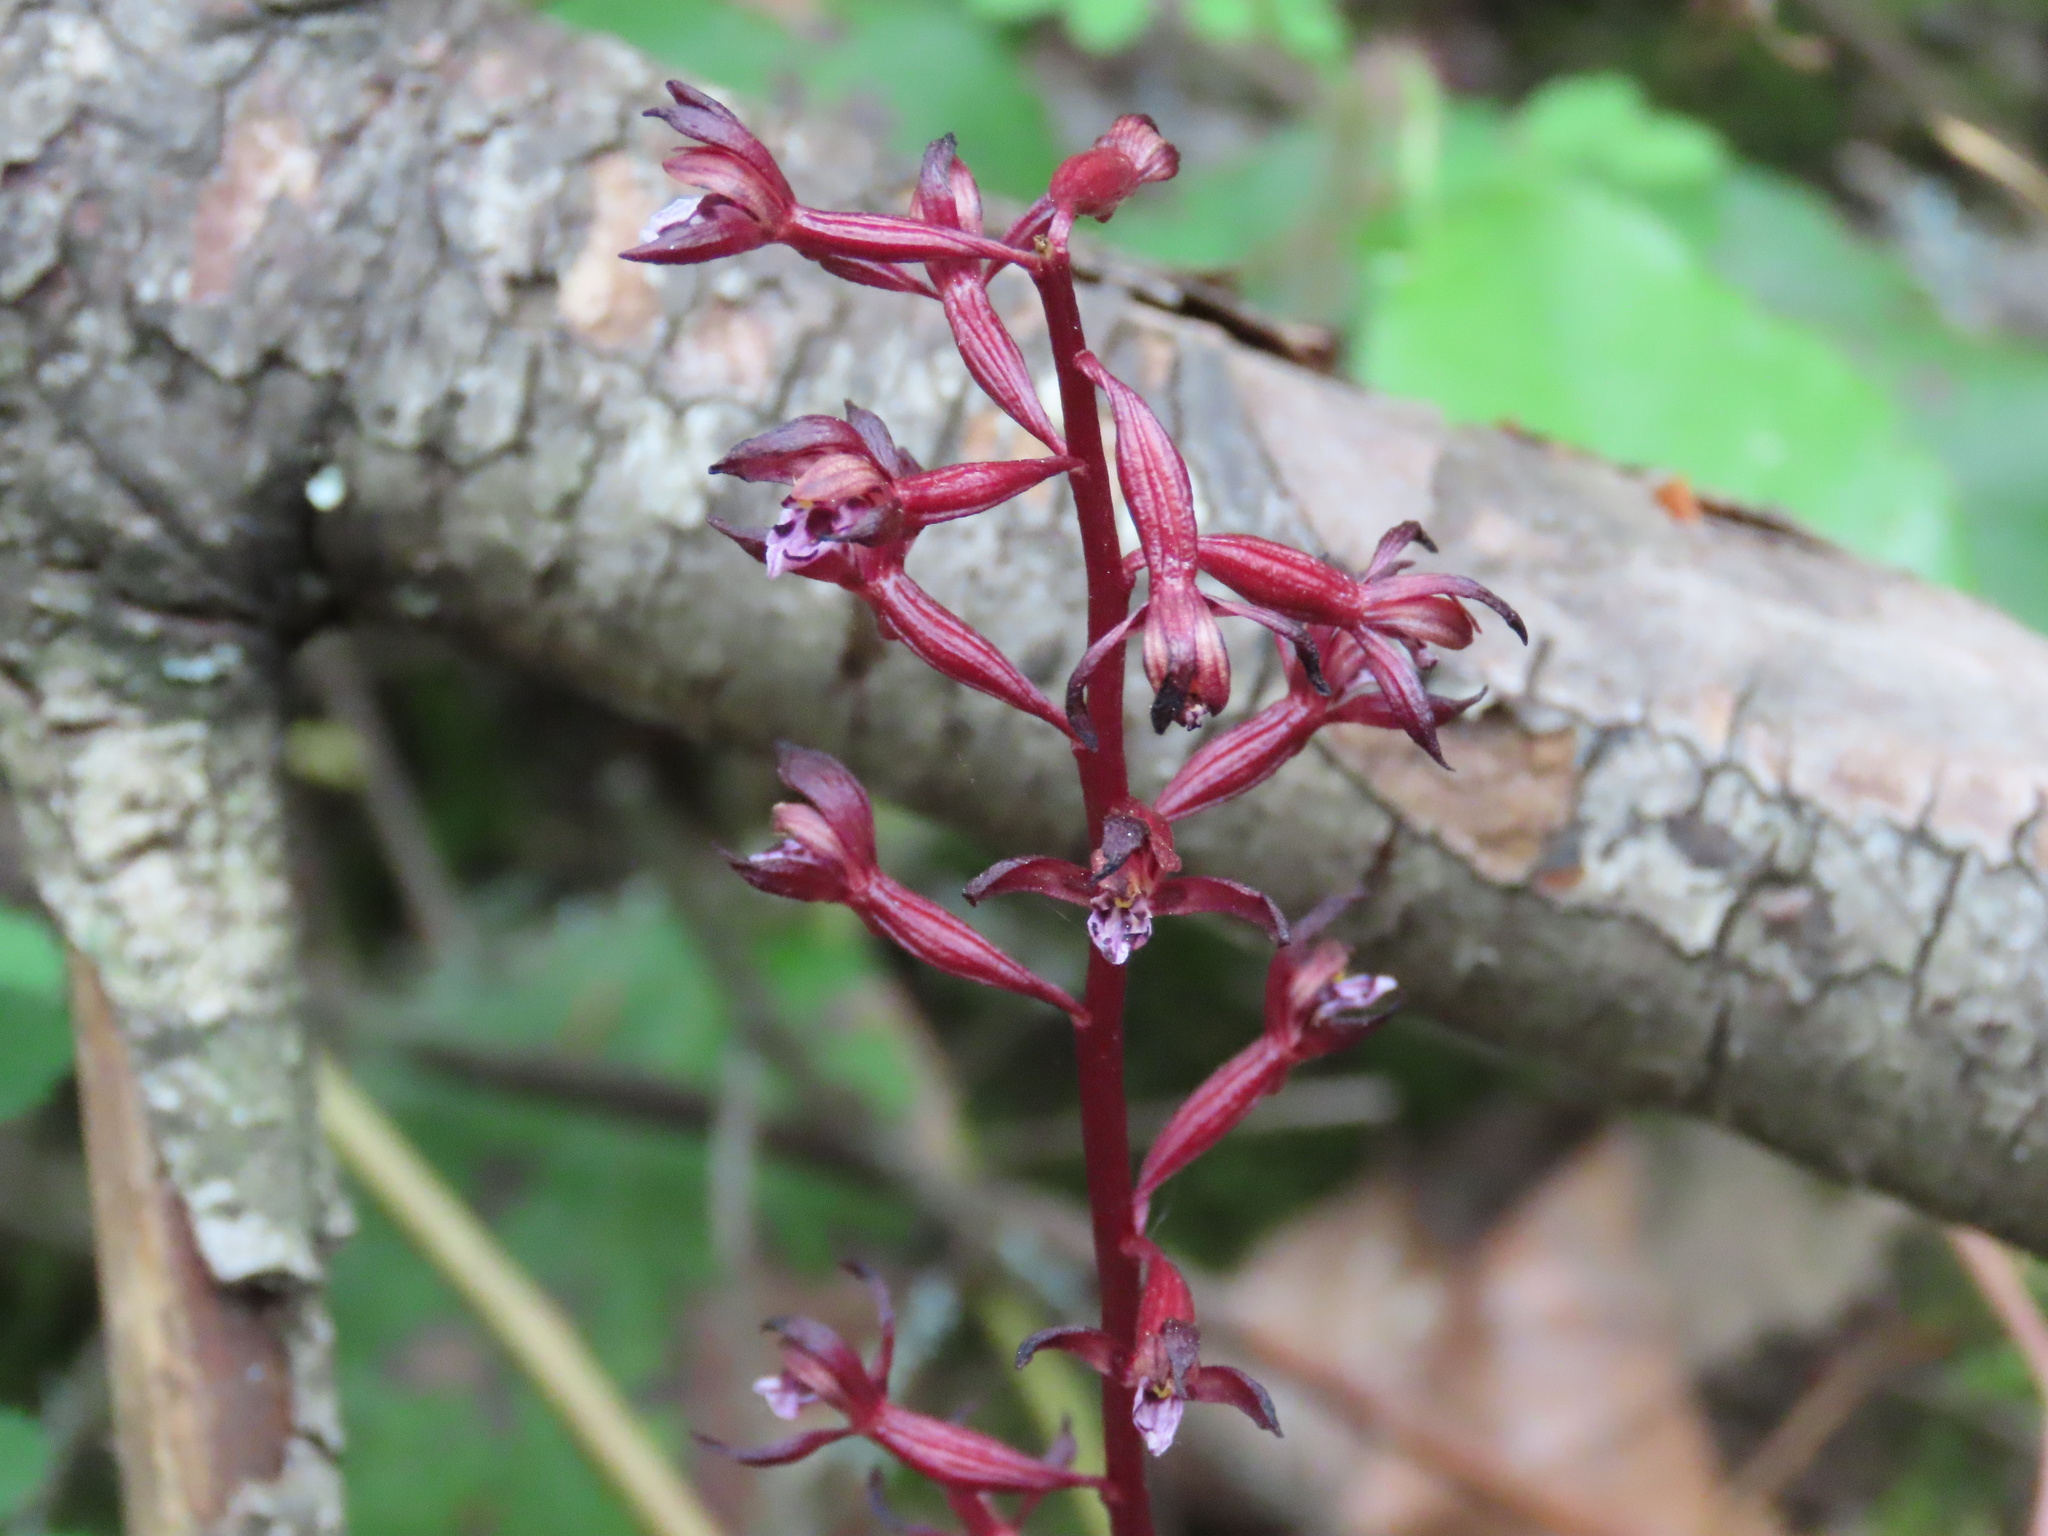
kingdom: Plantae
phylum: Tracheophyta
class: Liliopsida
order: Asparagales
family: Orchidaceae
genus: Corallorhiza
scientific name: Corallorhiza maculata
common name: Spotted coralroot
